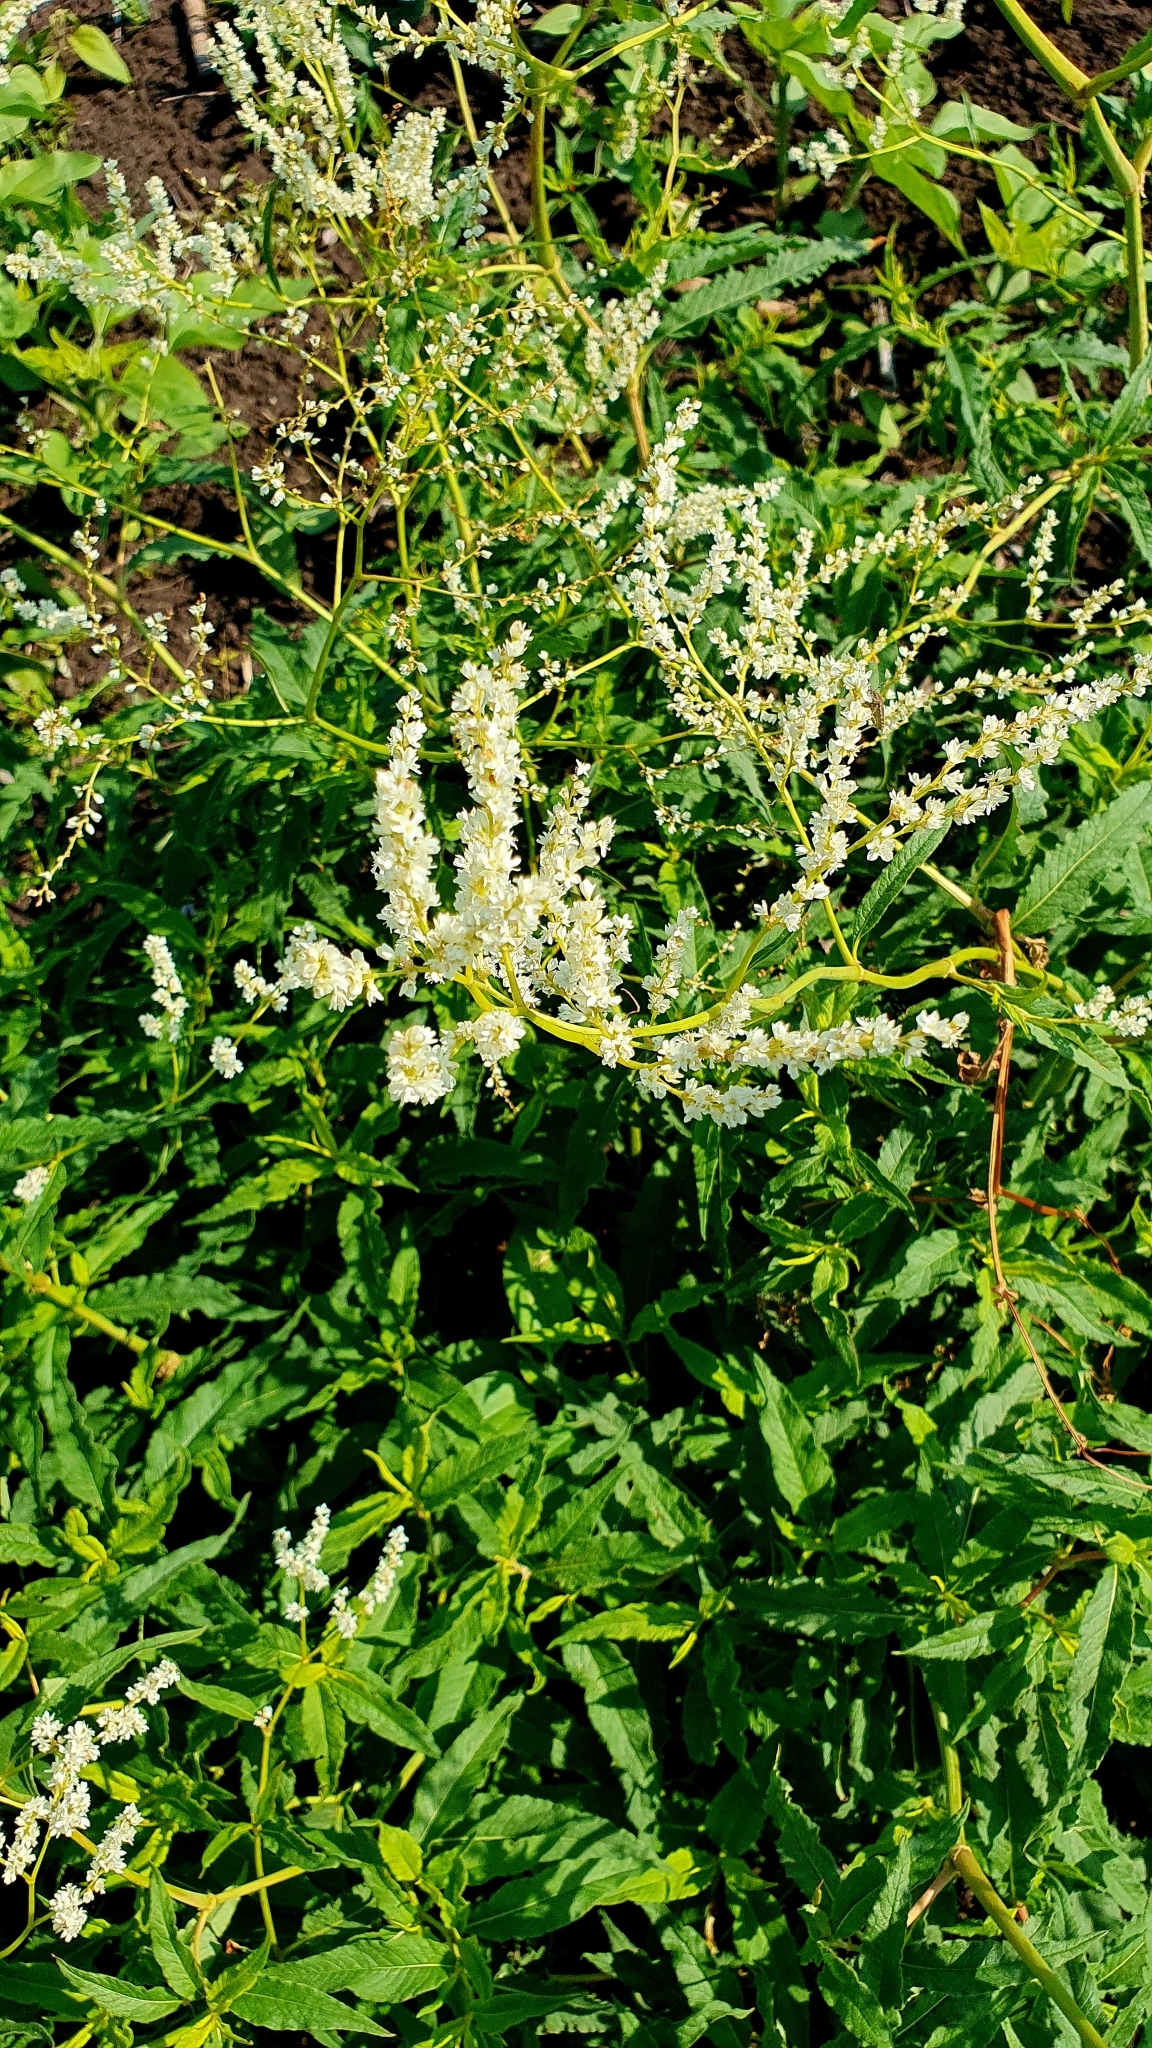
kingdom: Plantae
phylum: Tracheophyta
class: Magnoliopsida
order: Caryophyllales
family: Polygonaceae
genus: Koenigia
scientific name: Koenigia alpina
